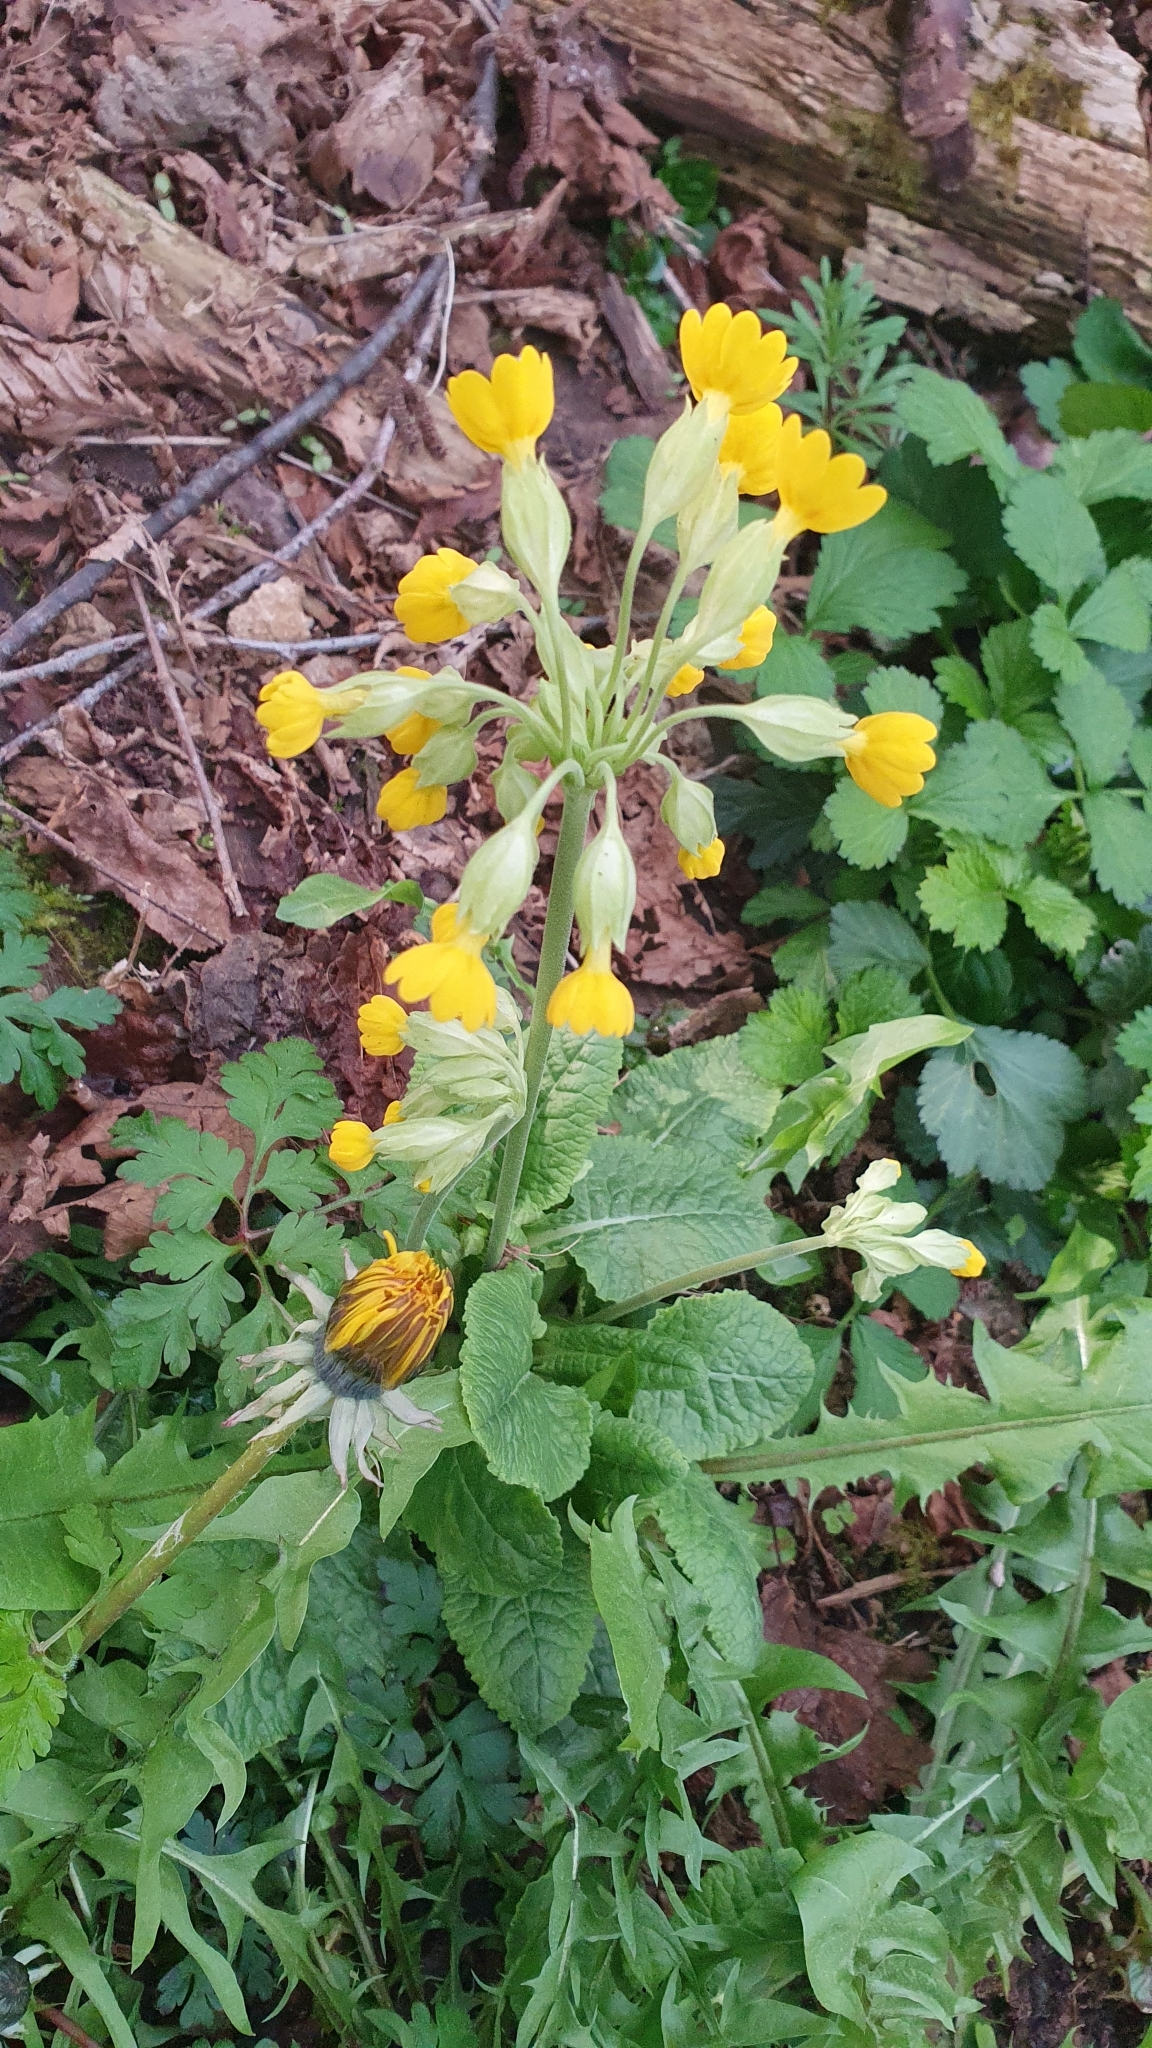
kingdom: Plantae
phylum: Tracheophyta
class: Magnoliopsida
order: Ericales
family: Primulaceae
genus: Primula
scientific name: Primula veris
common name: Cowslip
